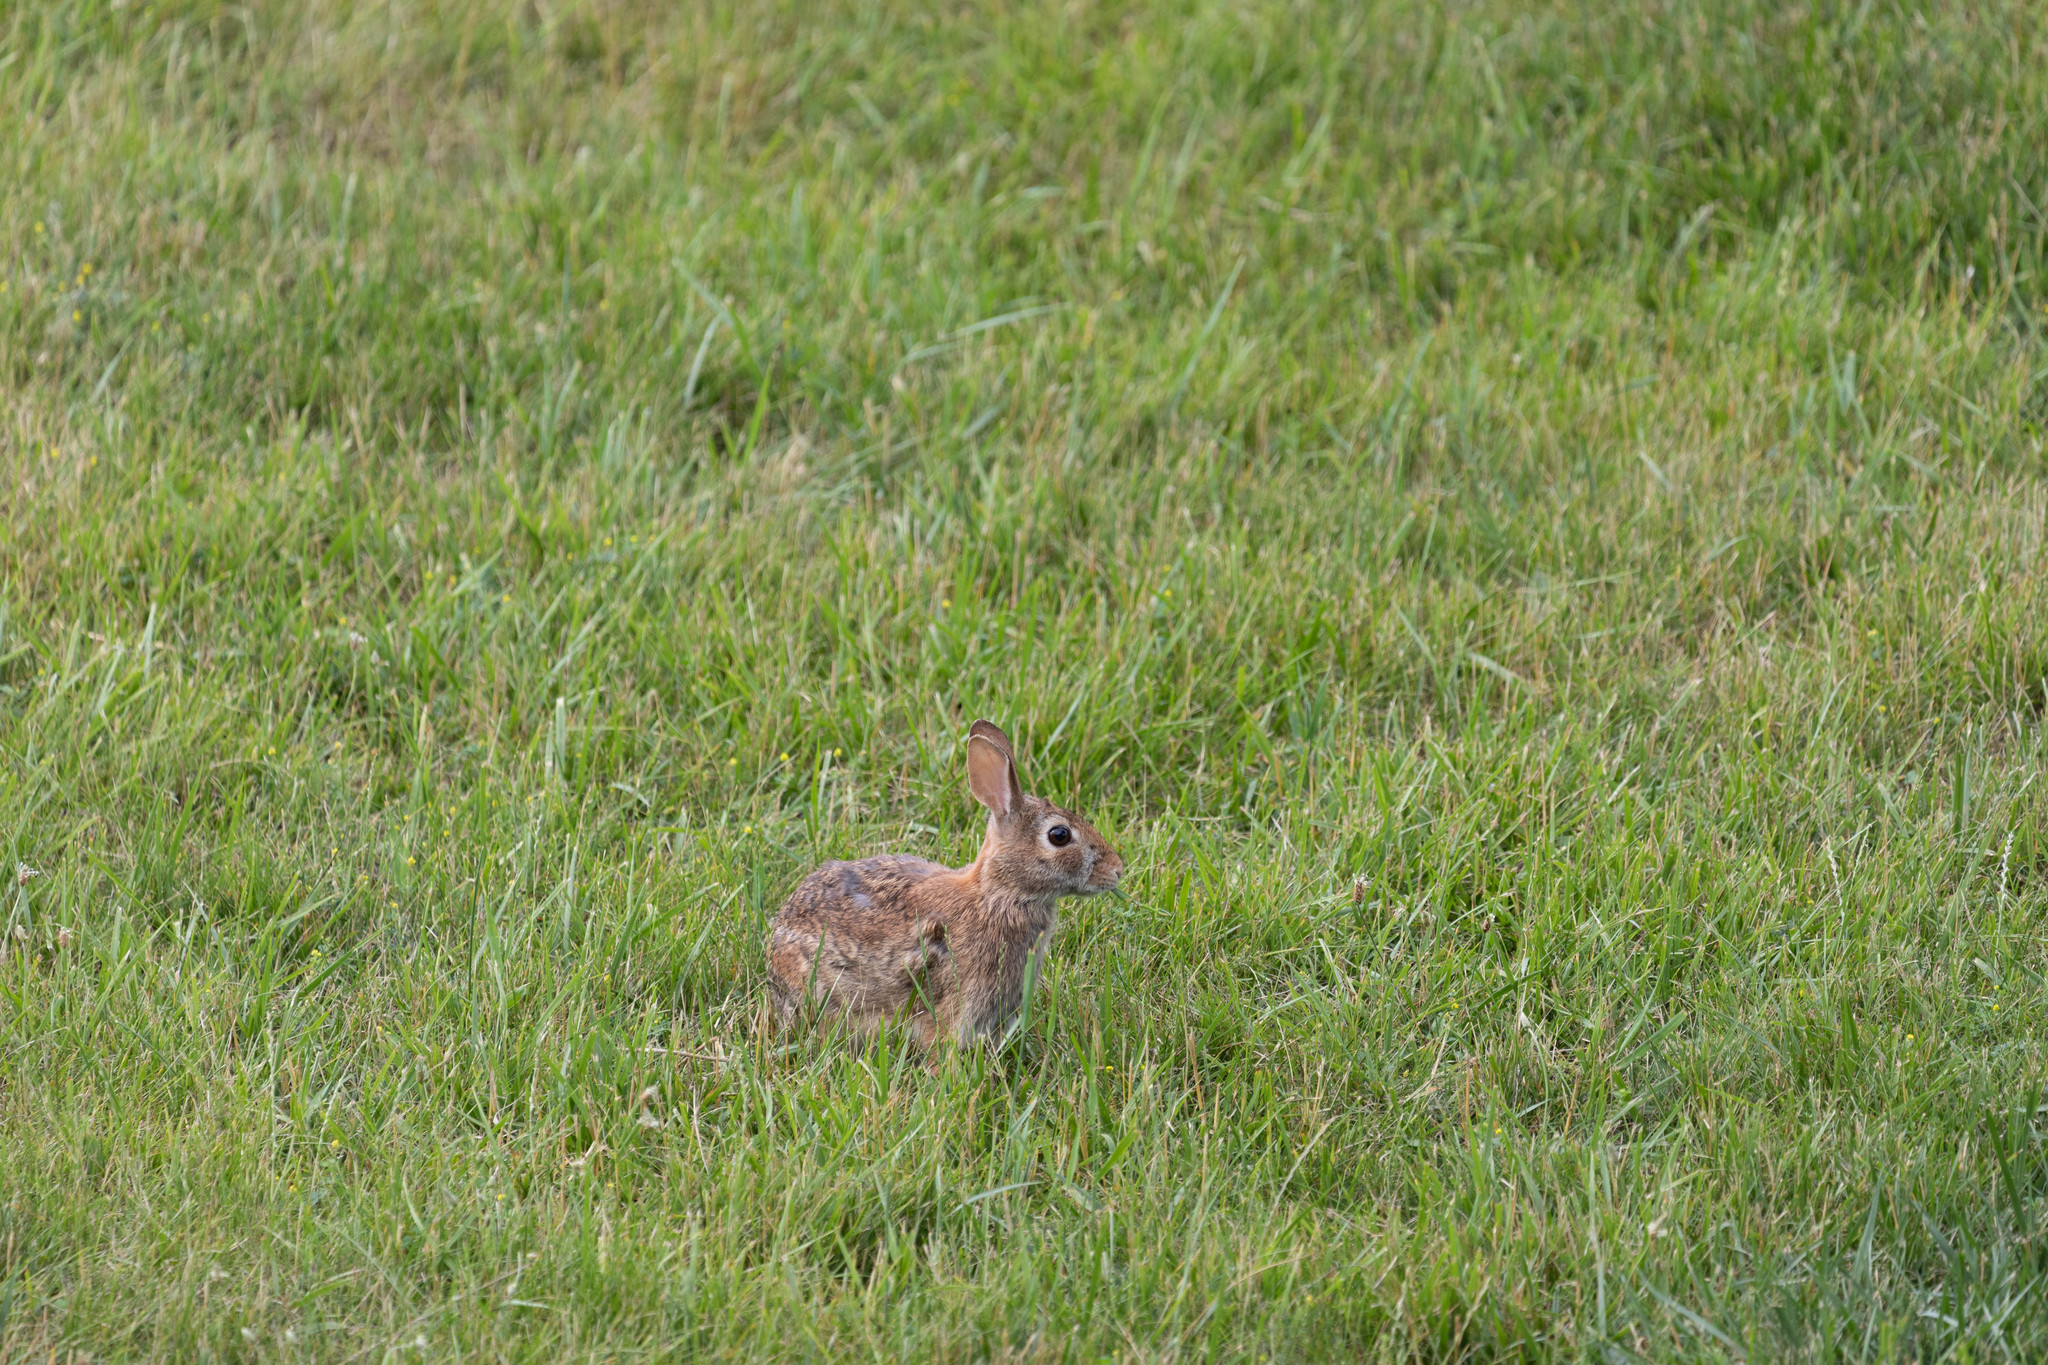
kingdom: Animalia
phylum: Chordata
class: Mammalia
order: Lagomorpha
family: Leporidae
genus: Sylvilagus
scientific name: Sylvilagus floridanus
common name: Eastern cottontail
